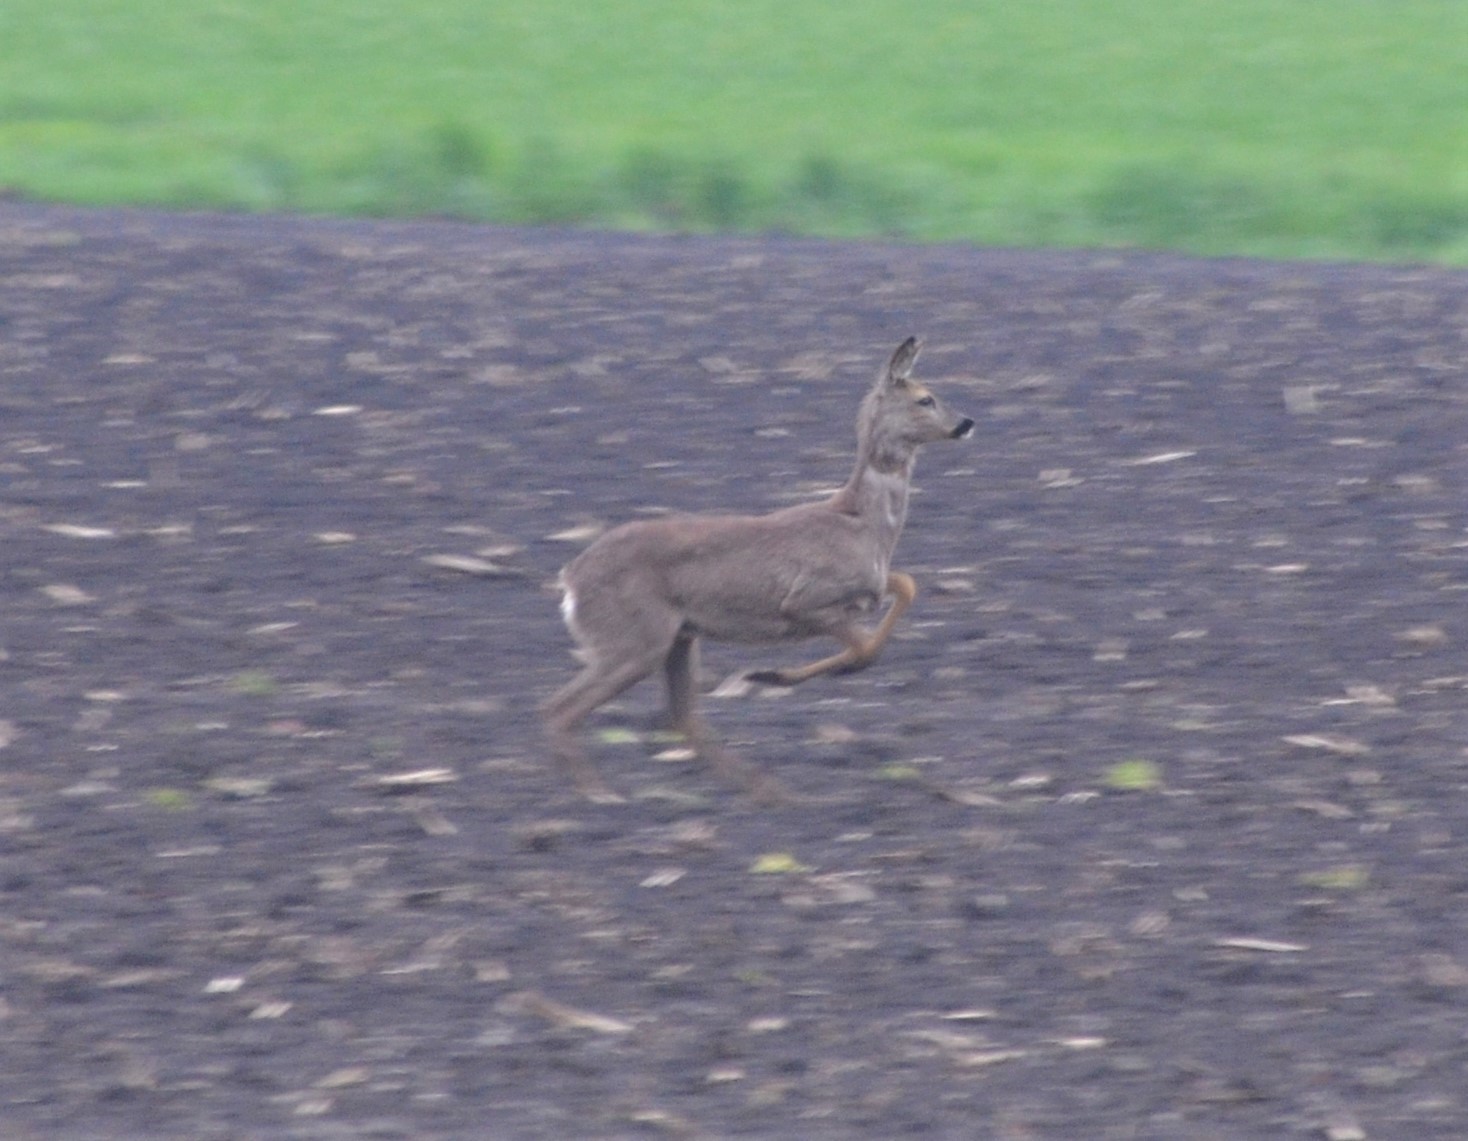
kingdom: Animalia
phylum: Chordata
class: Mammalia
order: Artiodactyla
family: Cervidae
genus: Capreolus
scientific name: Capreolus capreolus
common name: Western roe deer
